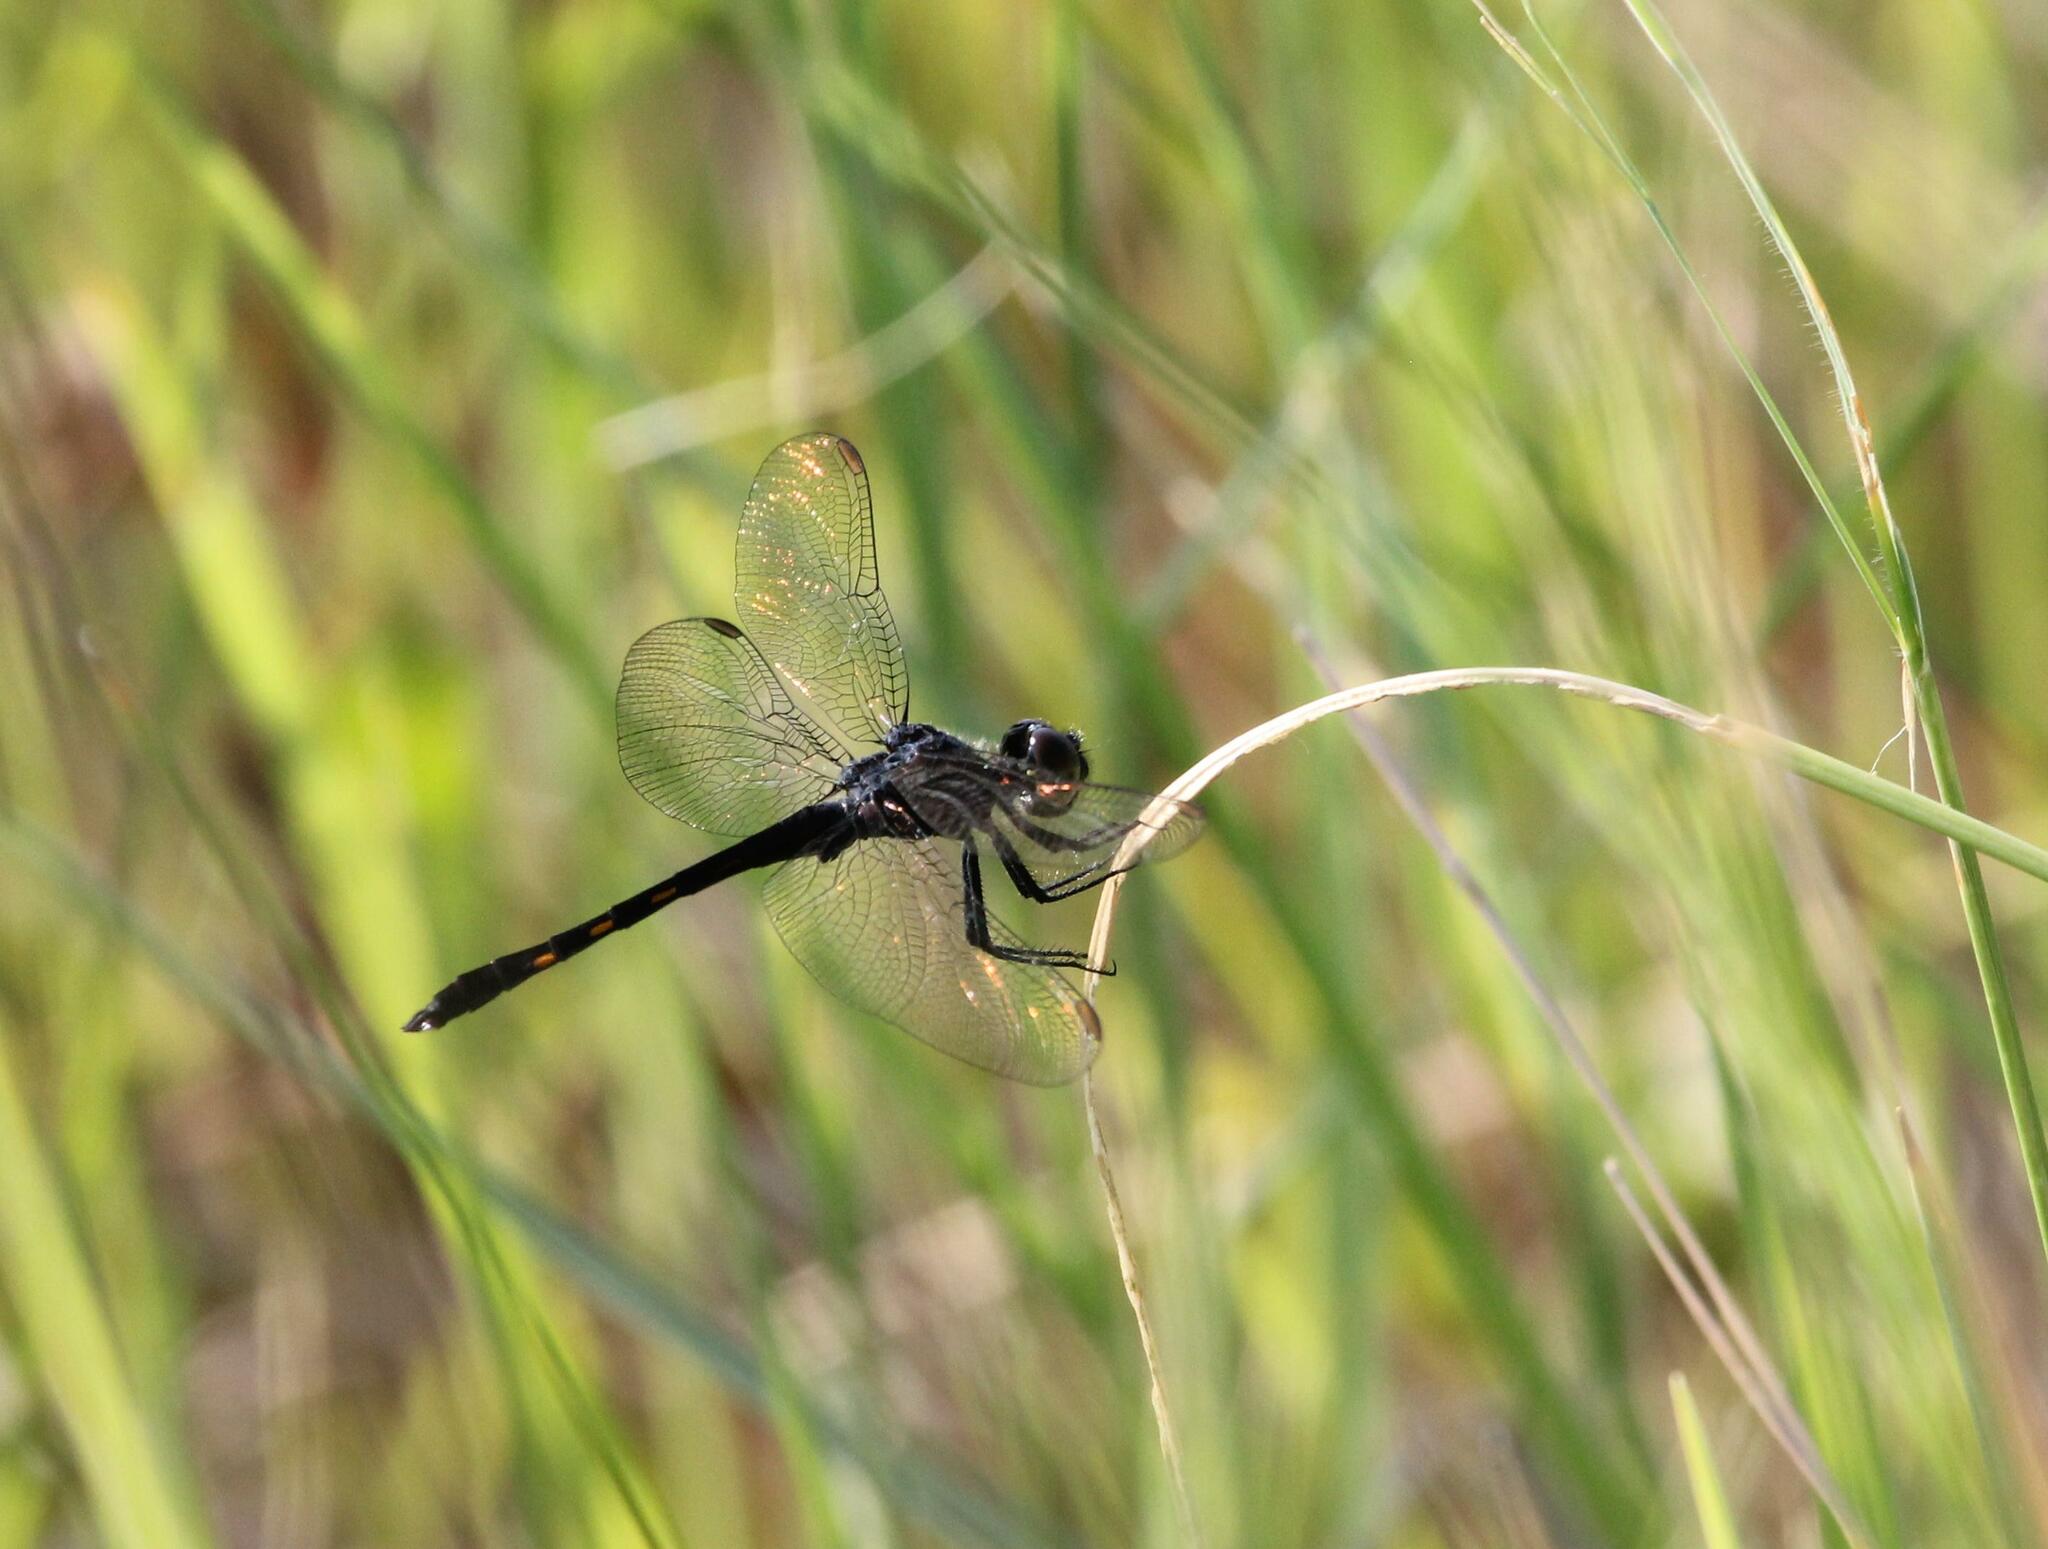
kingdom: Animalia
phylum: Arthropoda
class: Insecta
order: Odonata
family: Libellulidae
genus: Erythrodiplax
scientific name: Erythrodiplax berenice
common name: Seaside dragonlet
